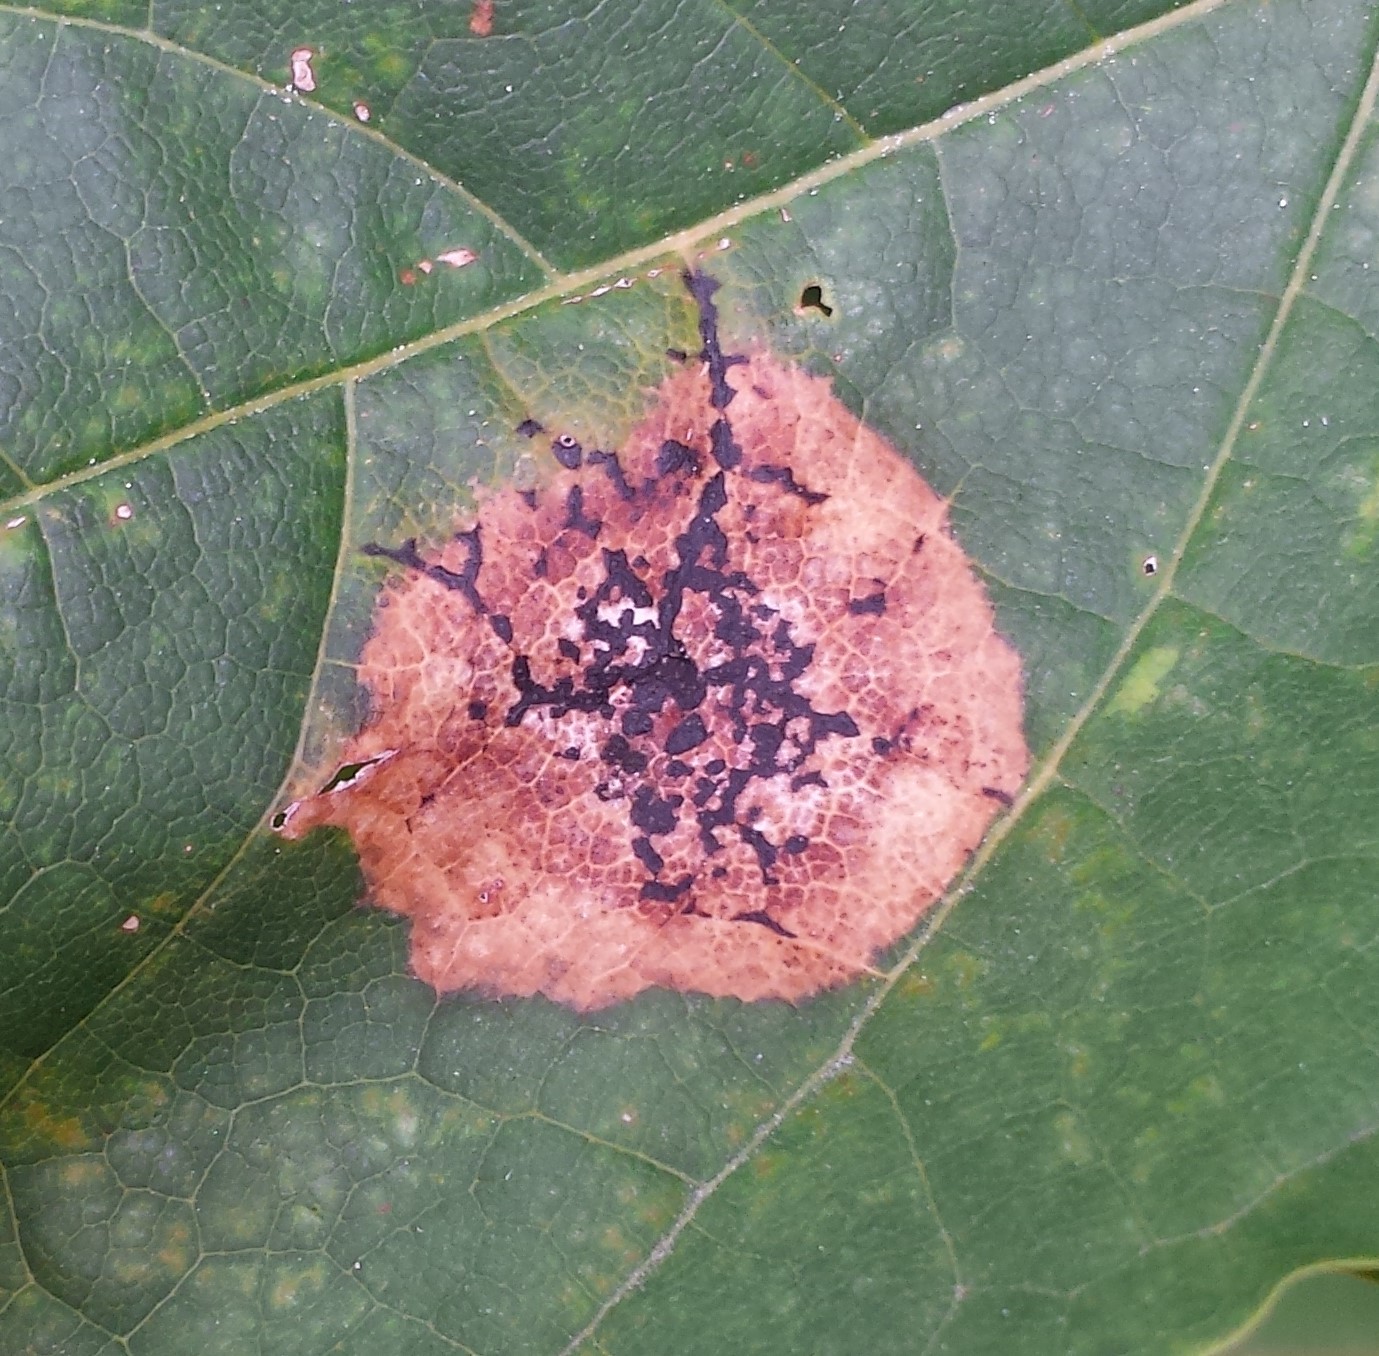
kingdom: Fungi
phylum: Ascomycota
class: Leotiomycetes
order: Rhytismatales
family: Rhytismataceae
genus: Rhytisma
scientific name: Rhytisma acerinum
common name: European tar spot
